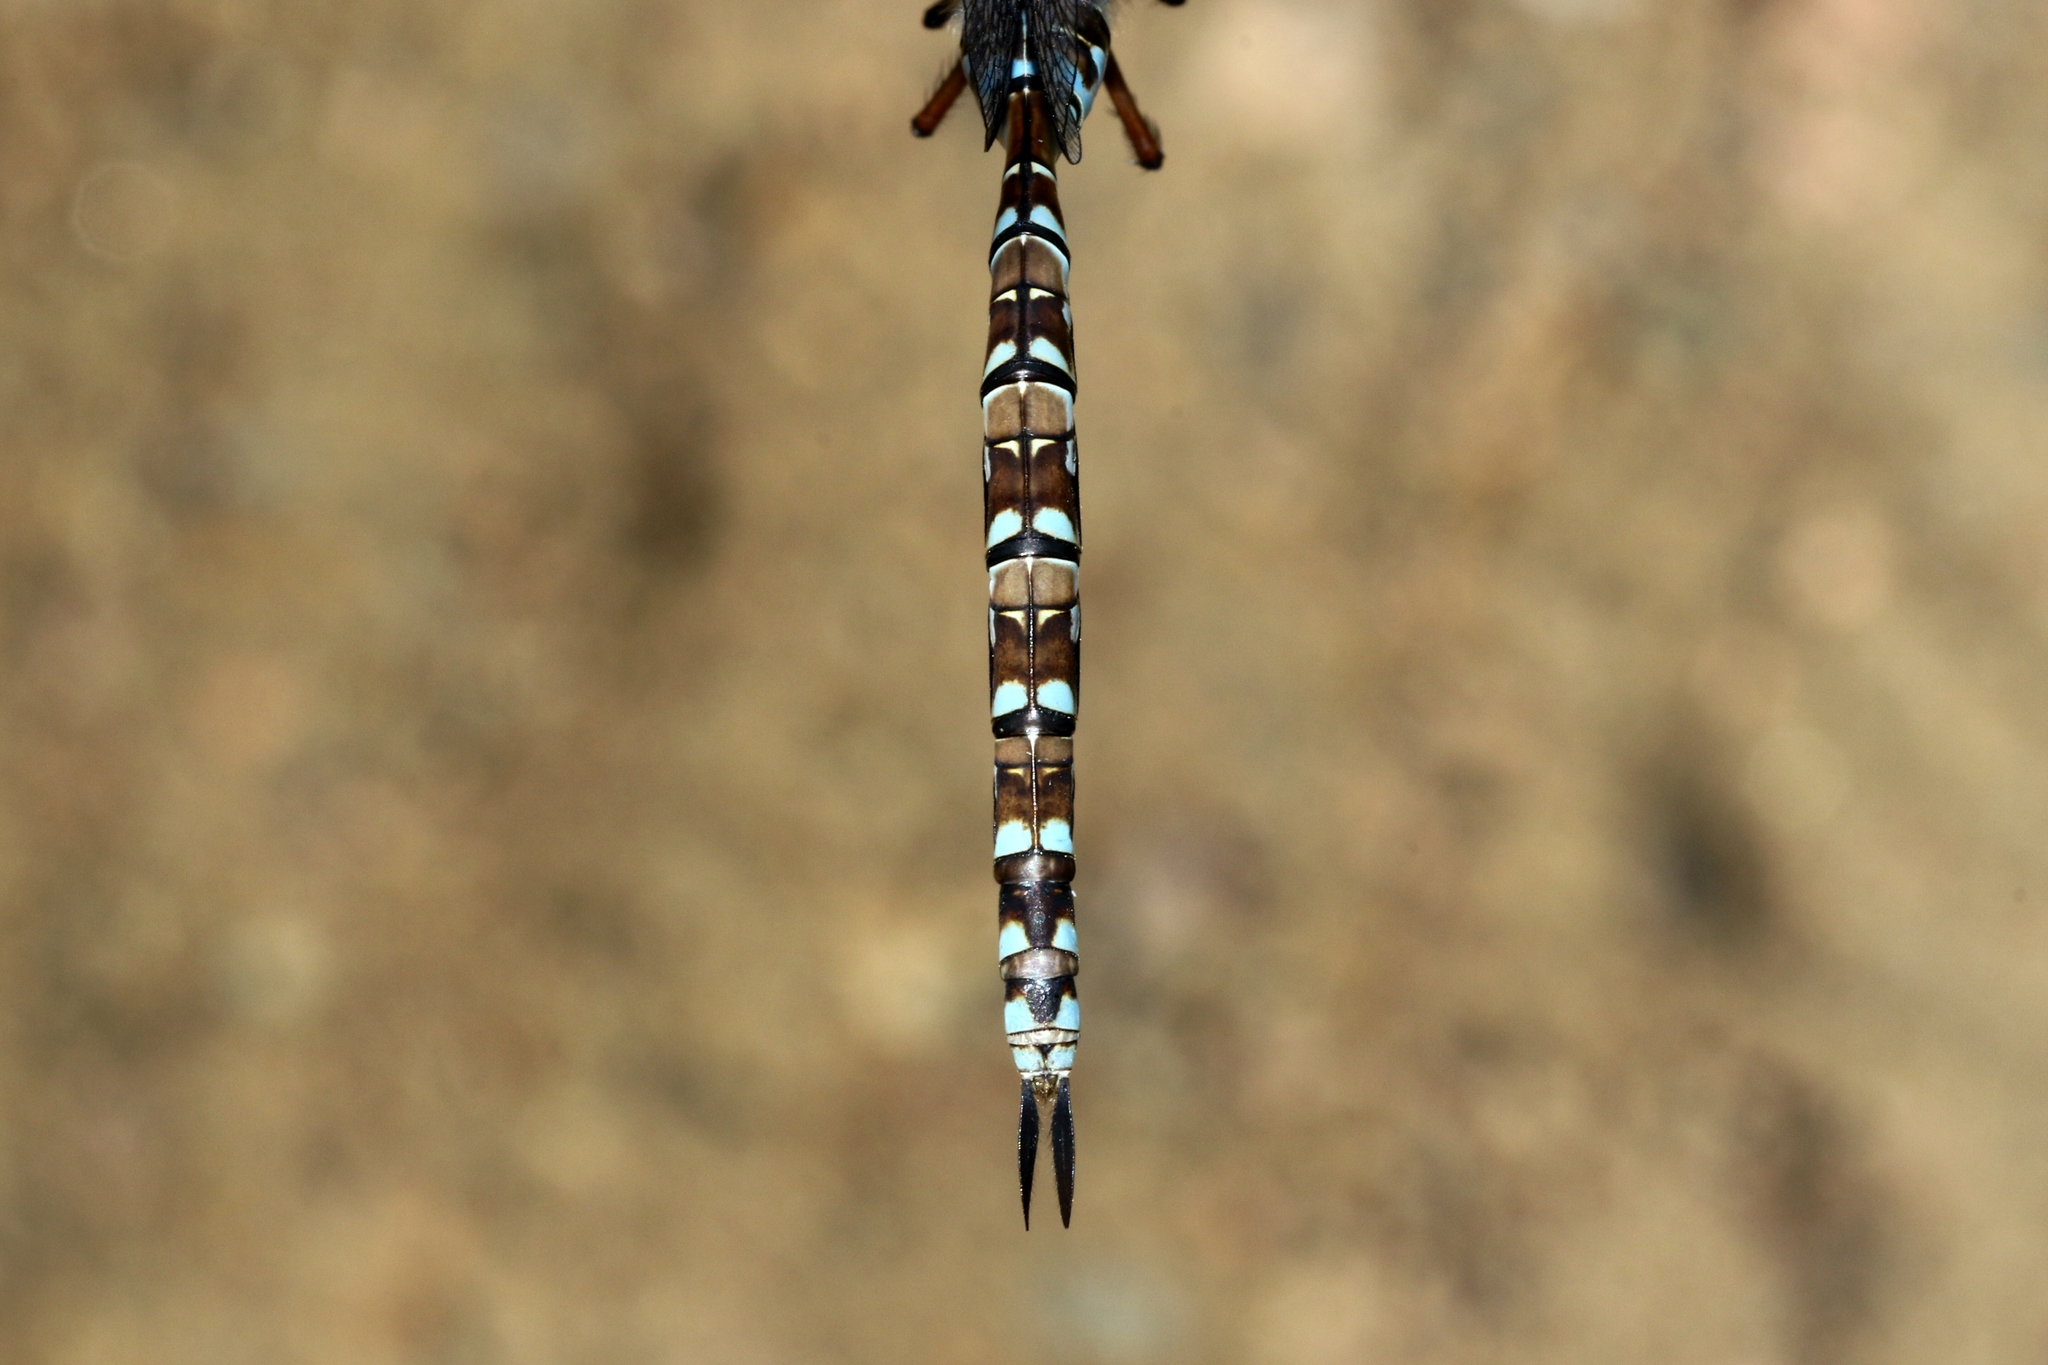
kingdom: Animalia
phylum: Arthropoda
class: Insecta
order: Odonata
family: Aeshnidae
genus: Aeshna
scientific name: Aeshna canadensis
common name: Canada darner
